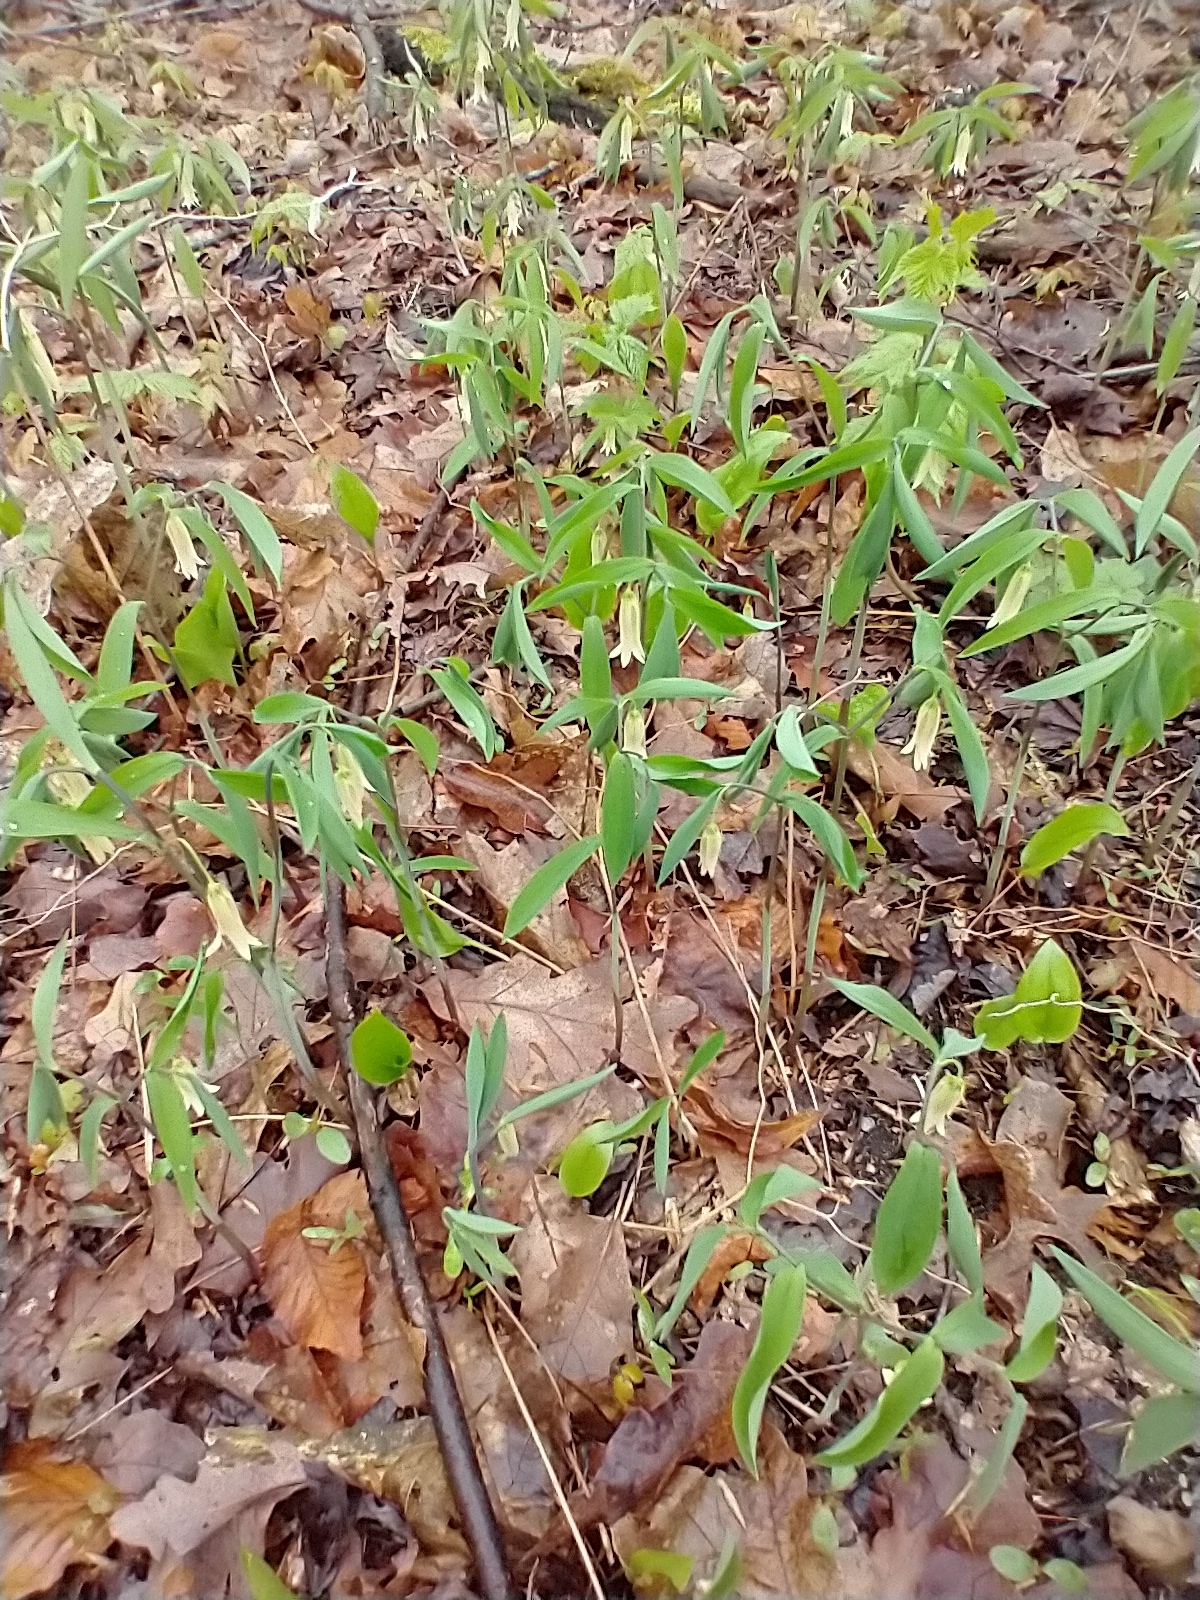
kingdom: Plantae
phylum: Tracheophyta
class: Liliopsida
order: Liliales
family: Colchicaceae
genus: Uvularia
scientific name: Uvularia sessilifolia
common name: Straw-lily
